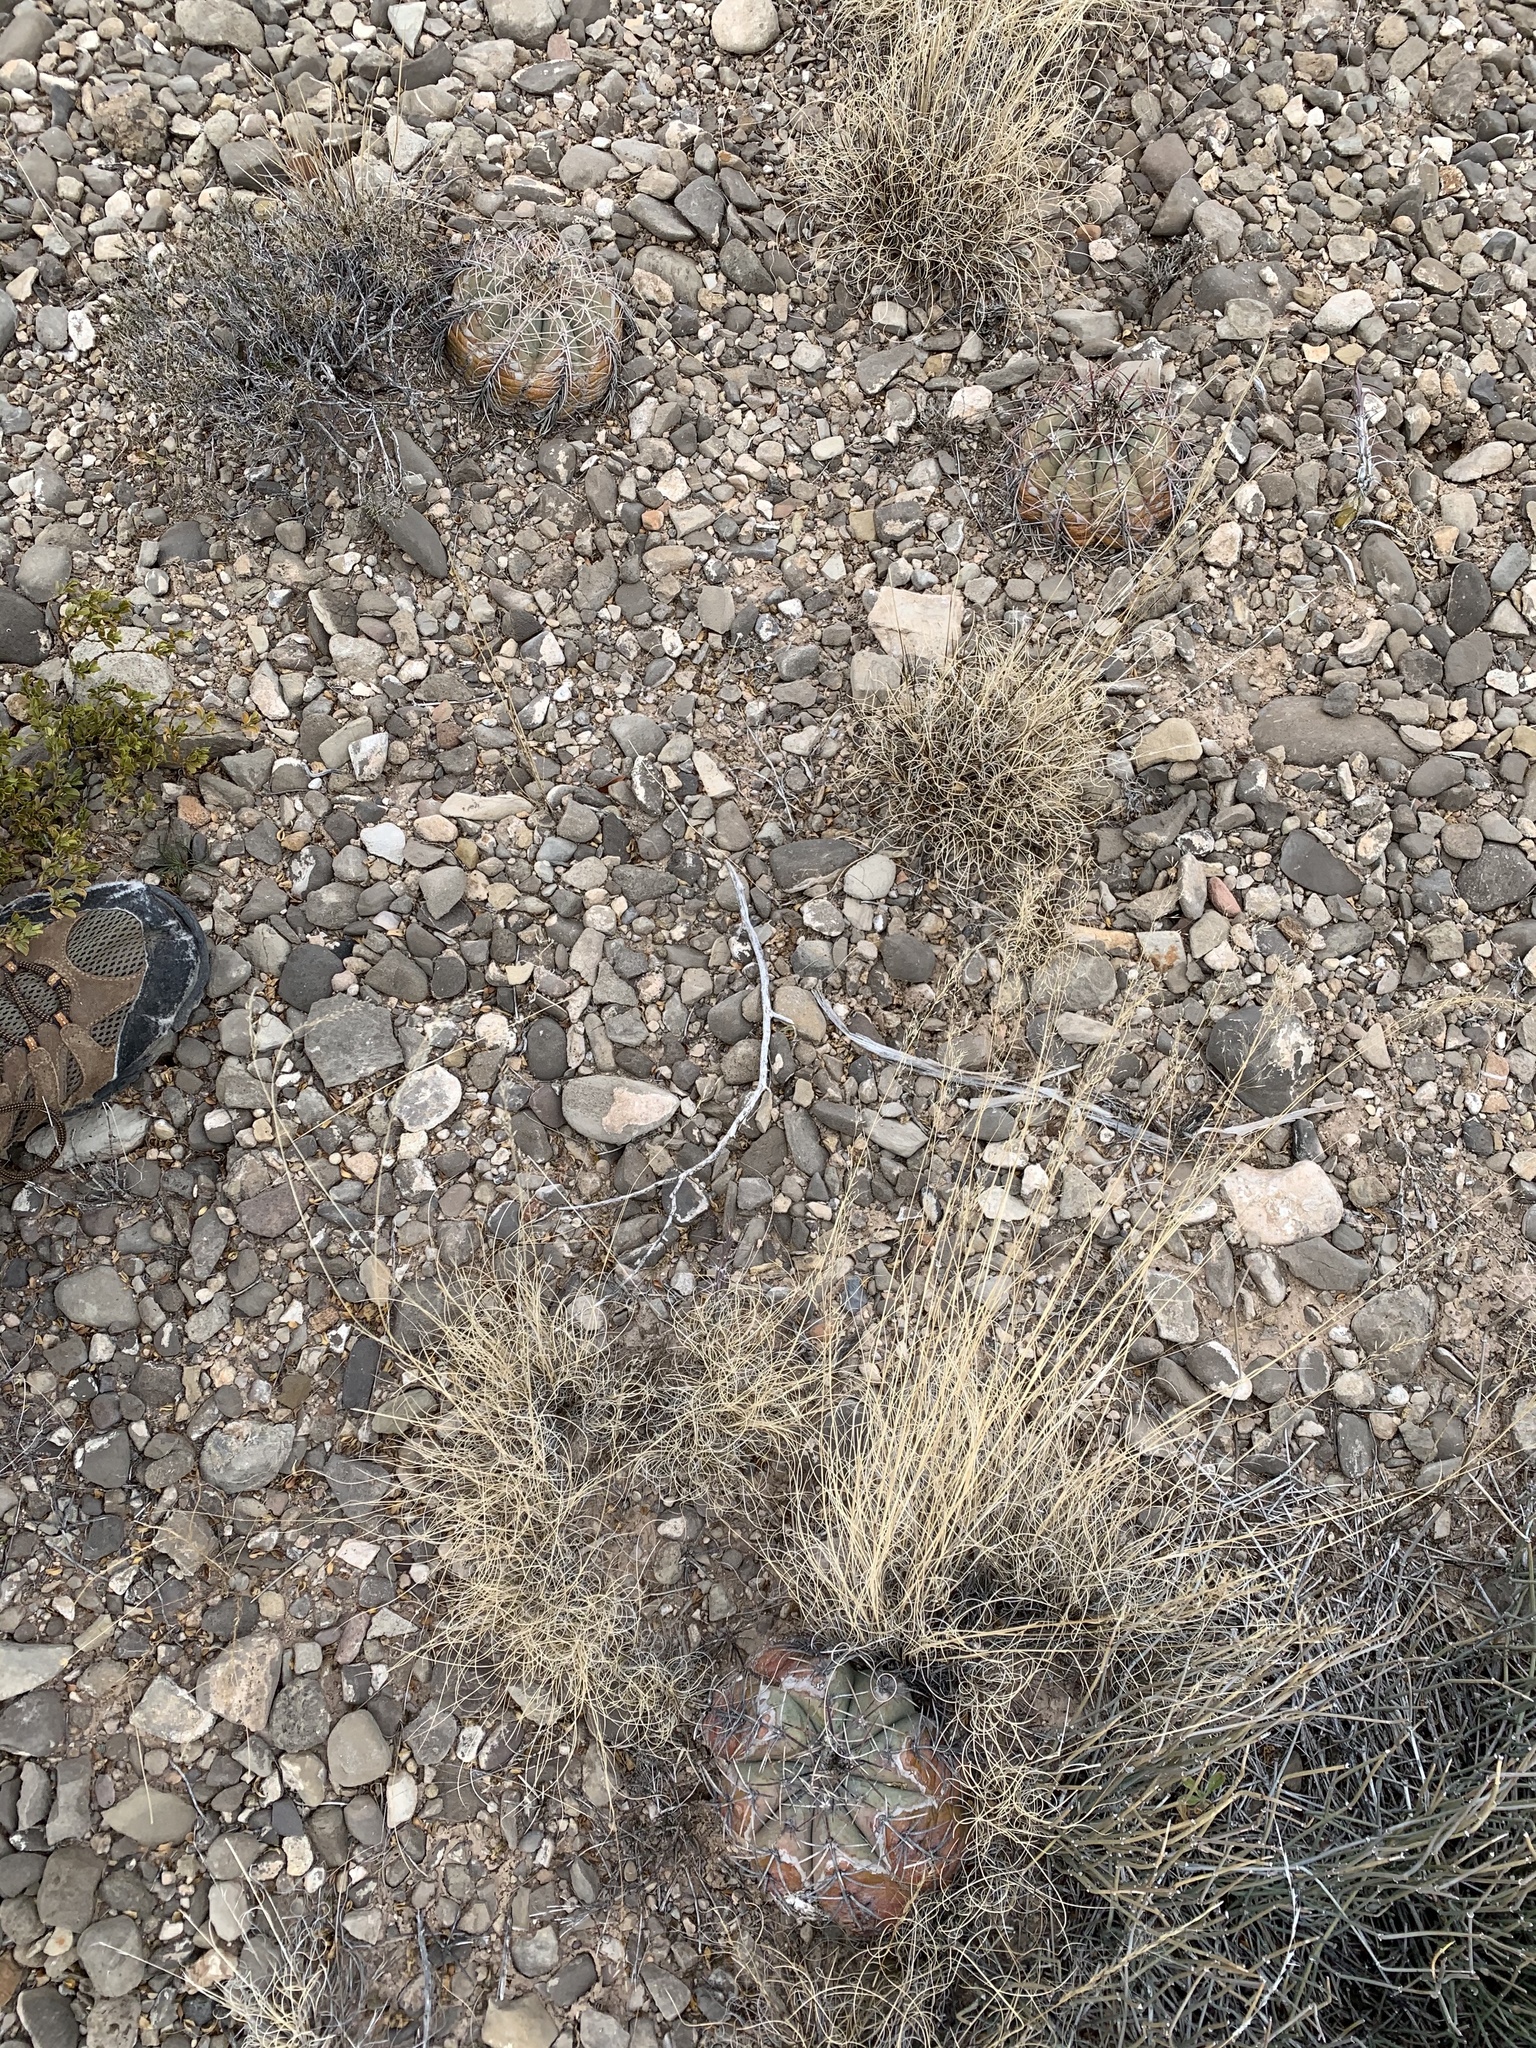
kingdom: Plantae
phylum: Tracheophyta
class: Magnoliopsida
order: Caryophyllales
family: Cactaceae
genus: Echinocactus
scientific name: Echinocactus horizonthalonius
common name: Devilshead
